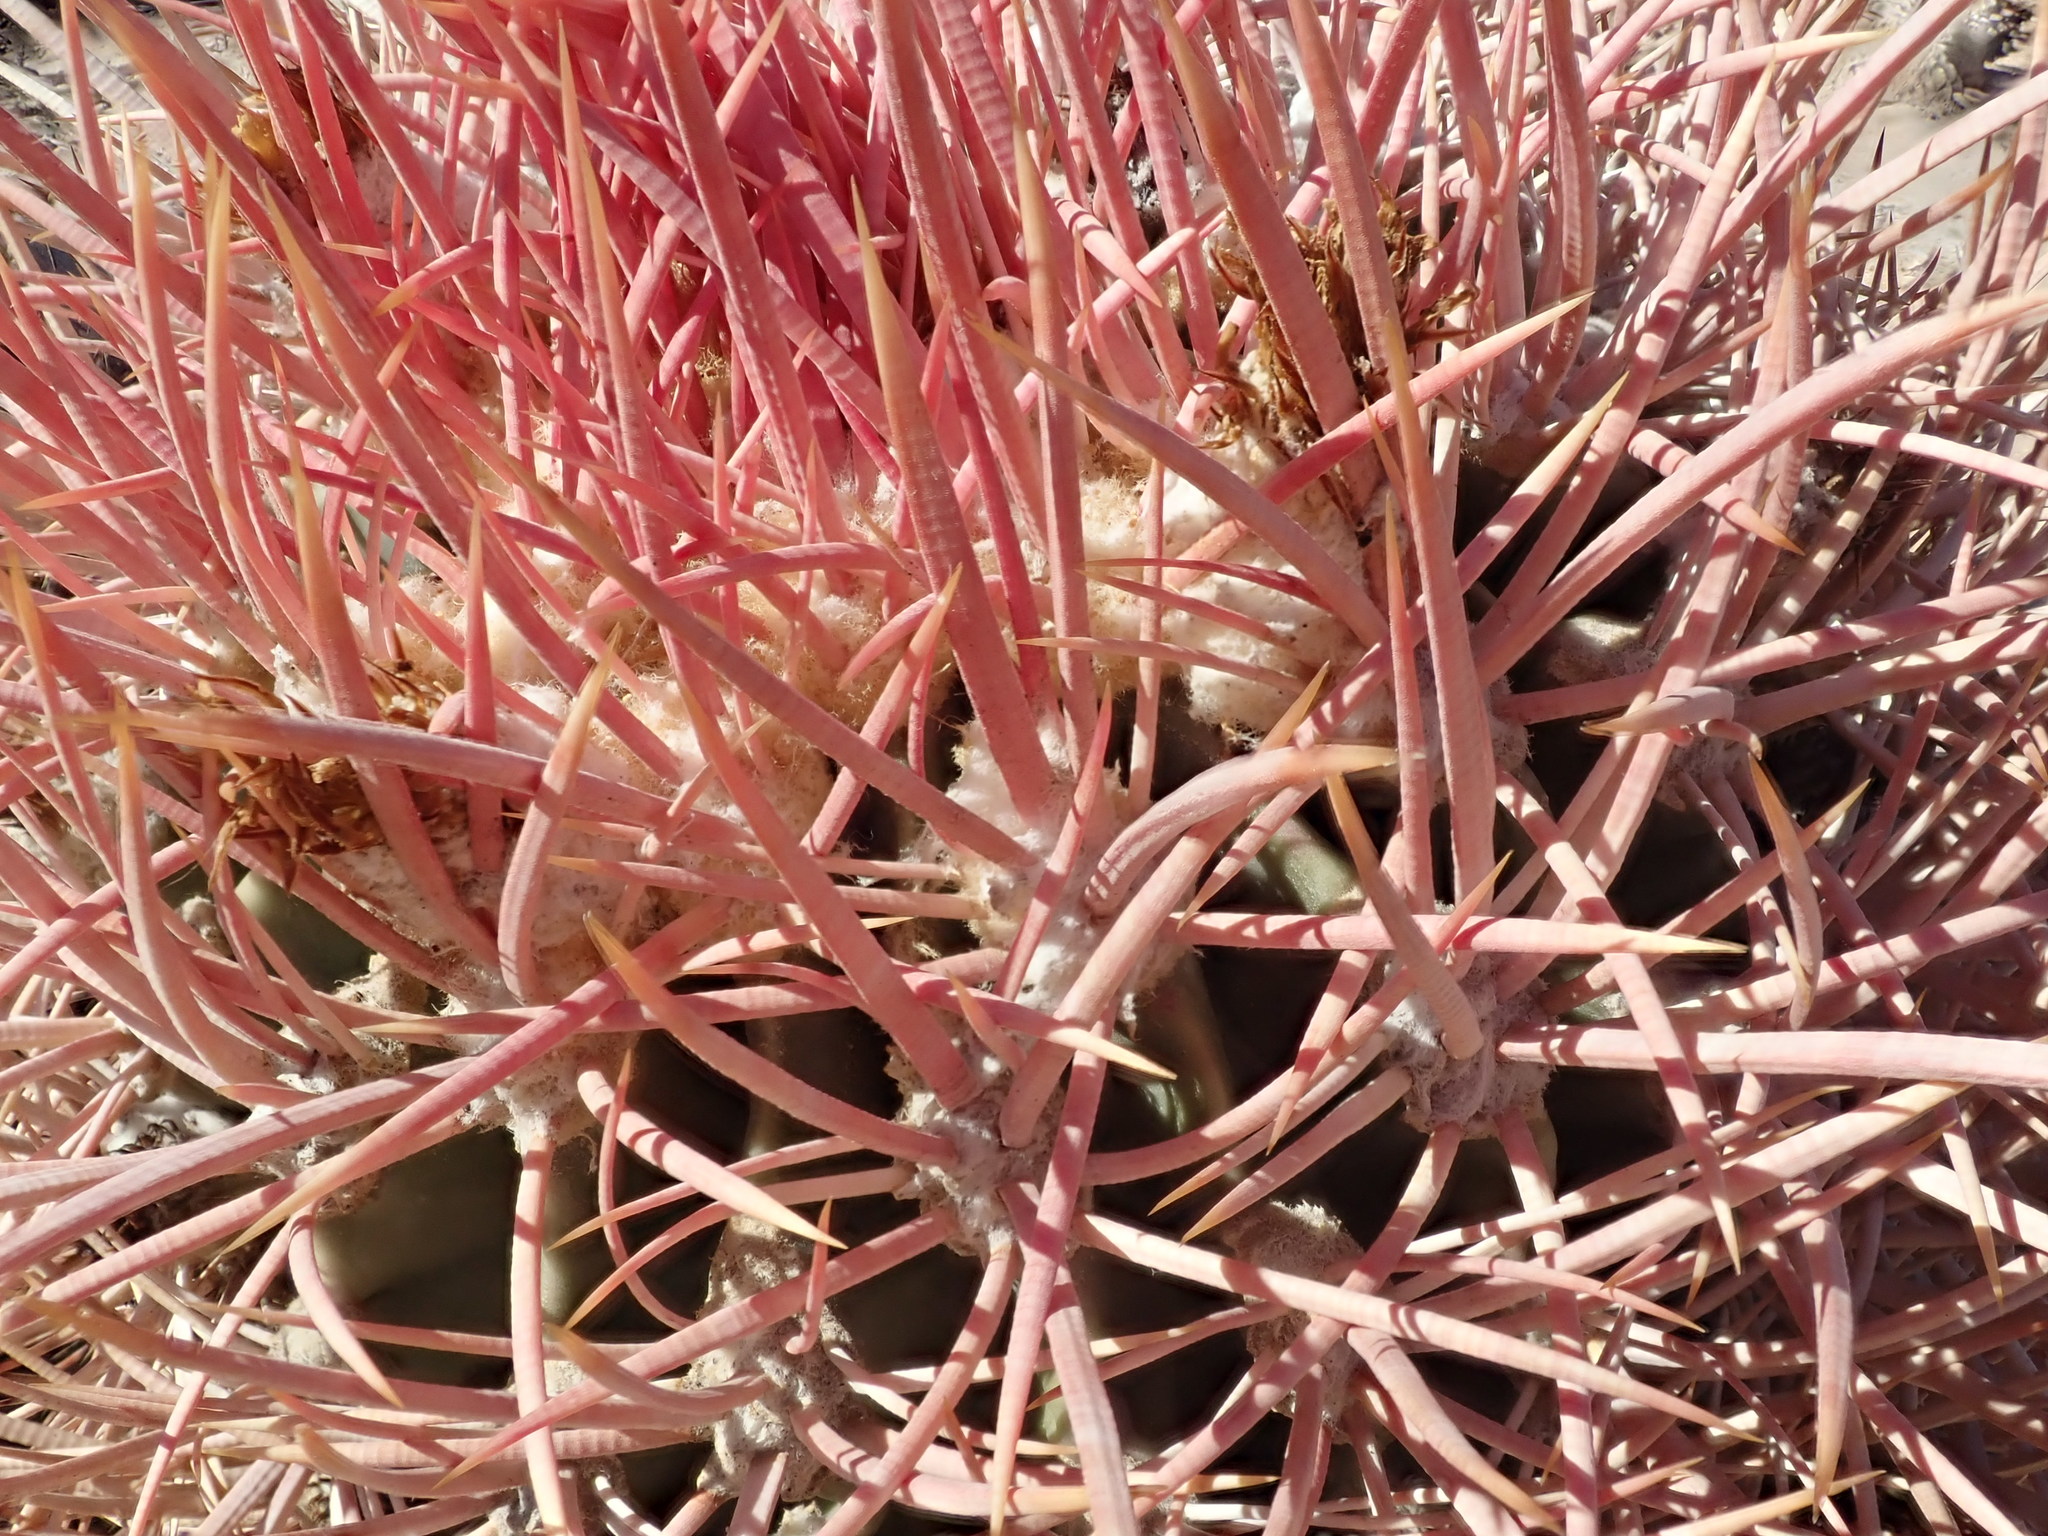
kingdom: Plantae
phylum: Tracheophyta
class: Magnoliopsida
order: Caryophyllales
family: Cactaceae
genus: Echinocactus
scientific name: Echinocactus polycephalus
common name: Cottontop cactus
